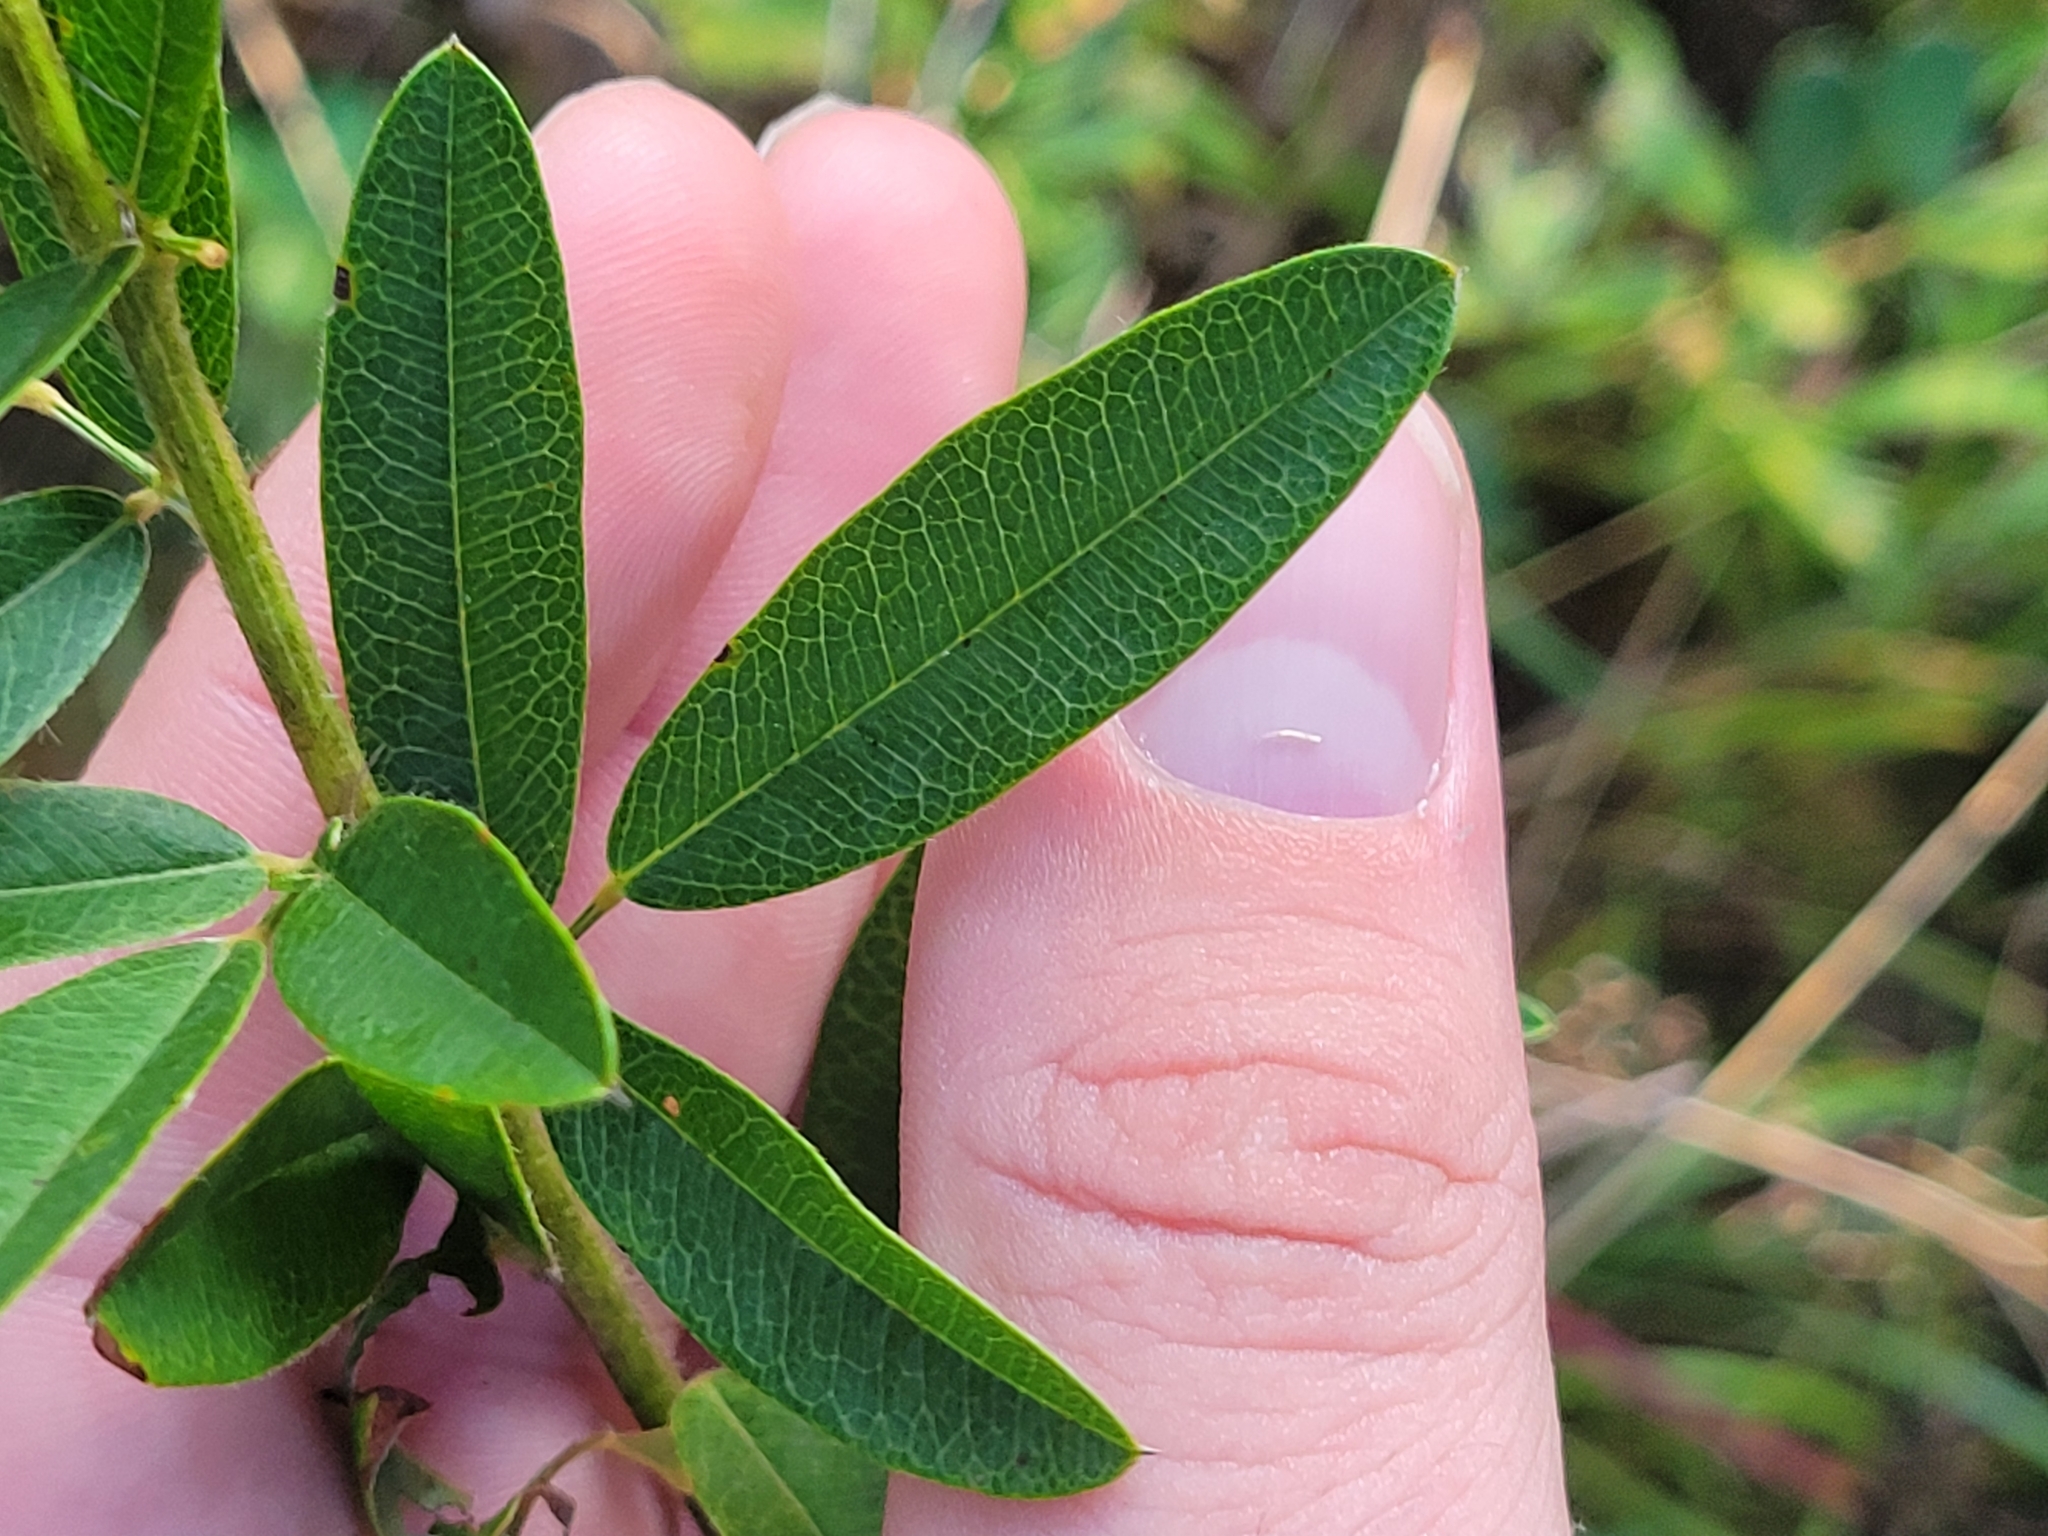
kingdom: Plantae
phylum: Tracheophyta
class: Magnoliopsida
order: Fabales
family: Fabaceae
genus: Lespedeza
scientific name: Lespedeza capitata
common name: Dusty clover
